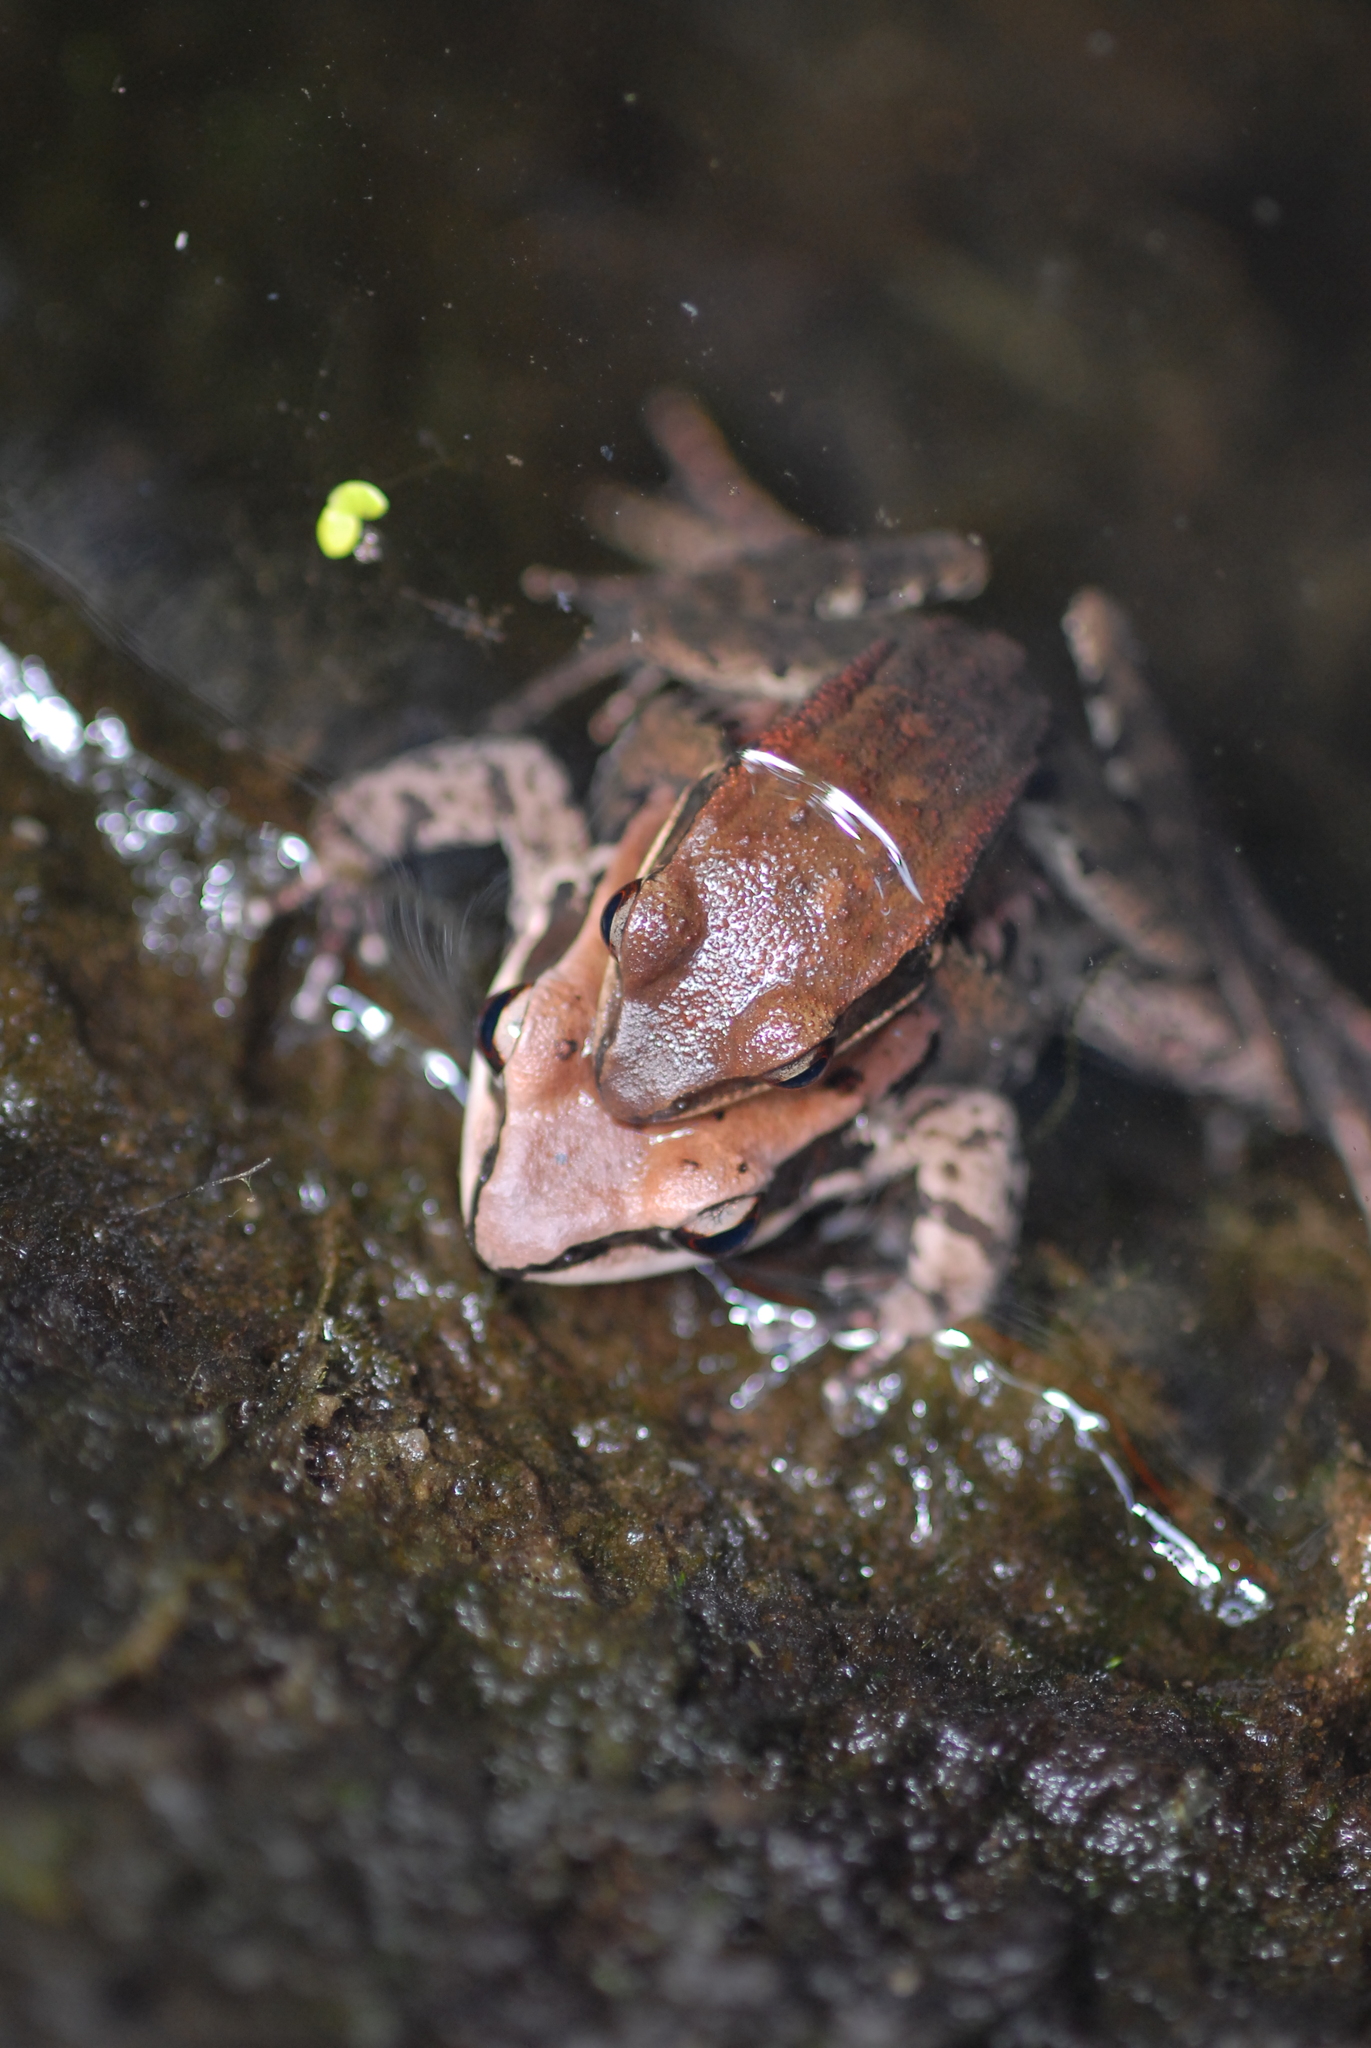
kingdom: Animalia
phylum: Chordata
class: Amphibia
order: Anura
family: Ranidae
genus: Hylarana
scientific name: Hylarana latouchii
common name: Broad-folded frog
